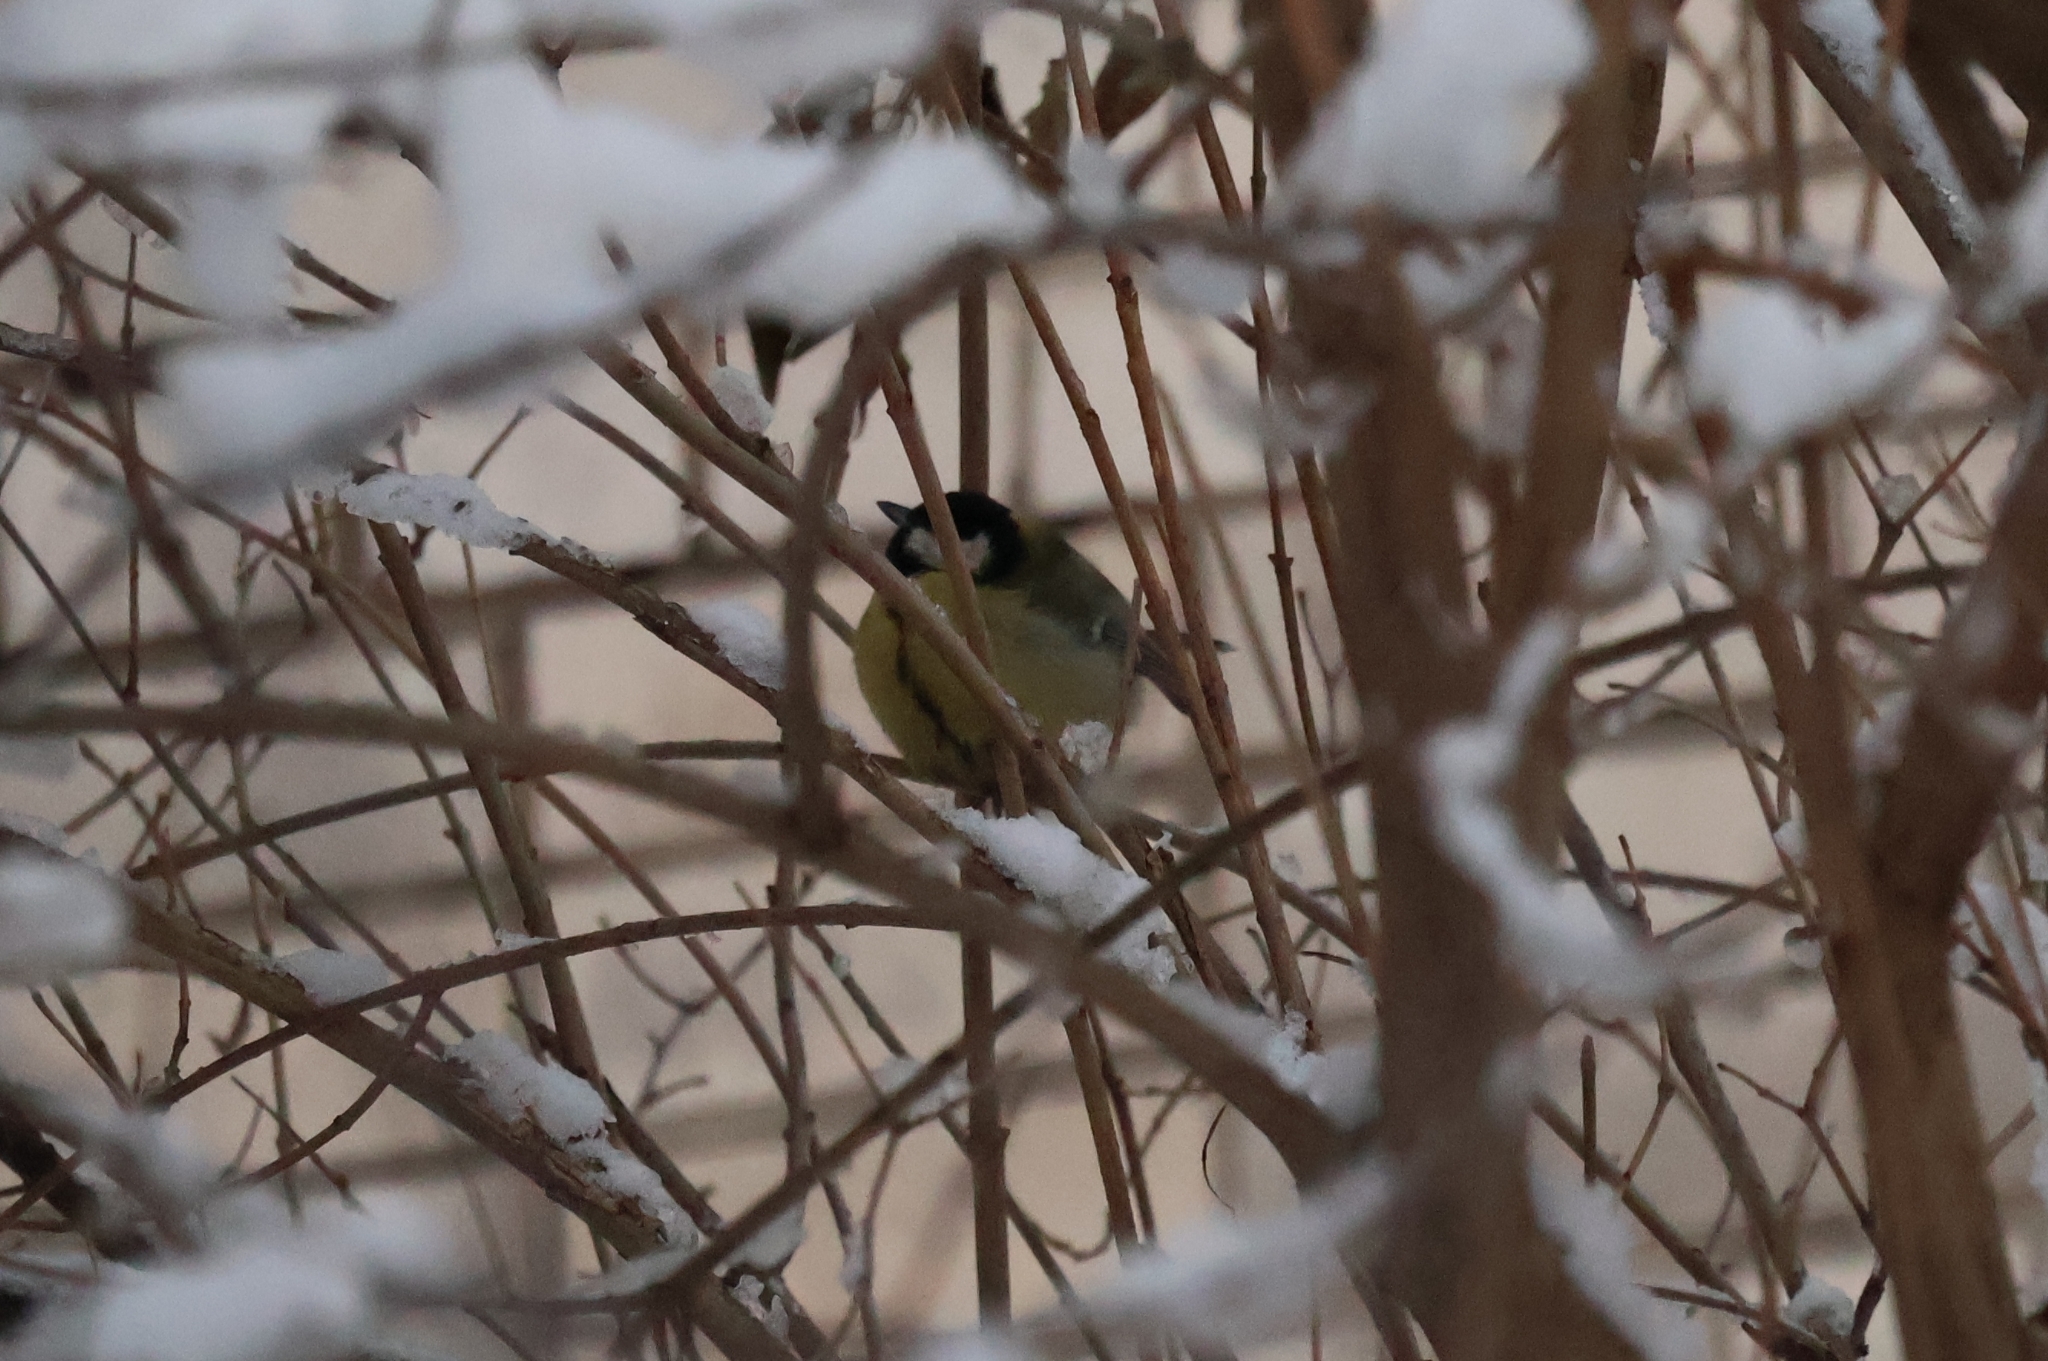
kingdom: Animalia
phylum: Chordata
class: Aves
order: Passeriformes
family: Paridae
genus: Parus
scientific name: Parus major
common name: Great tit
